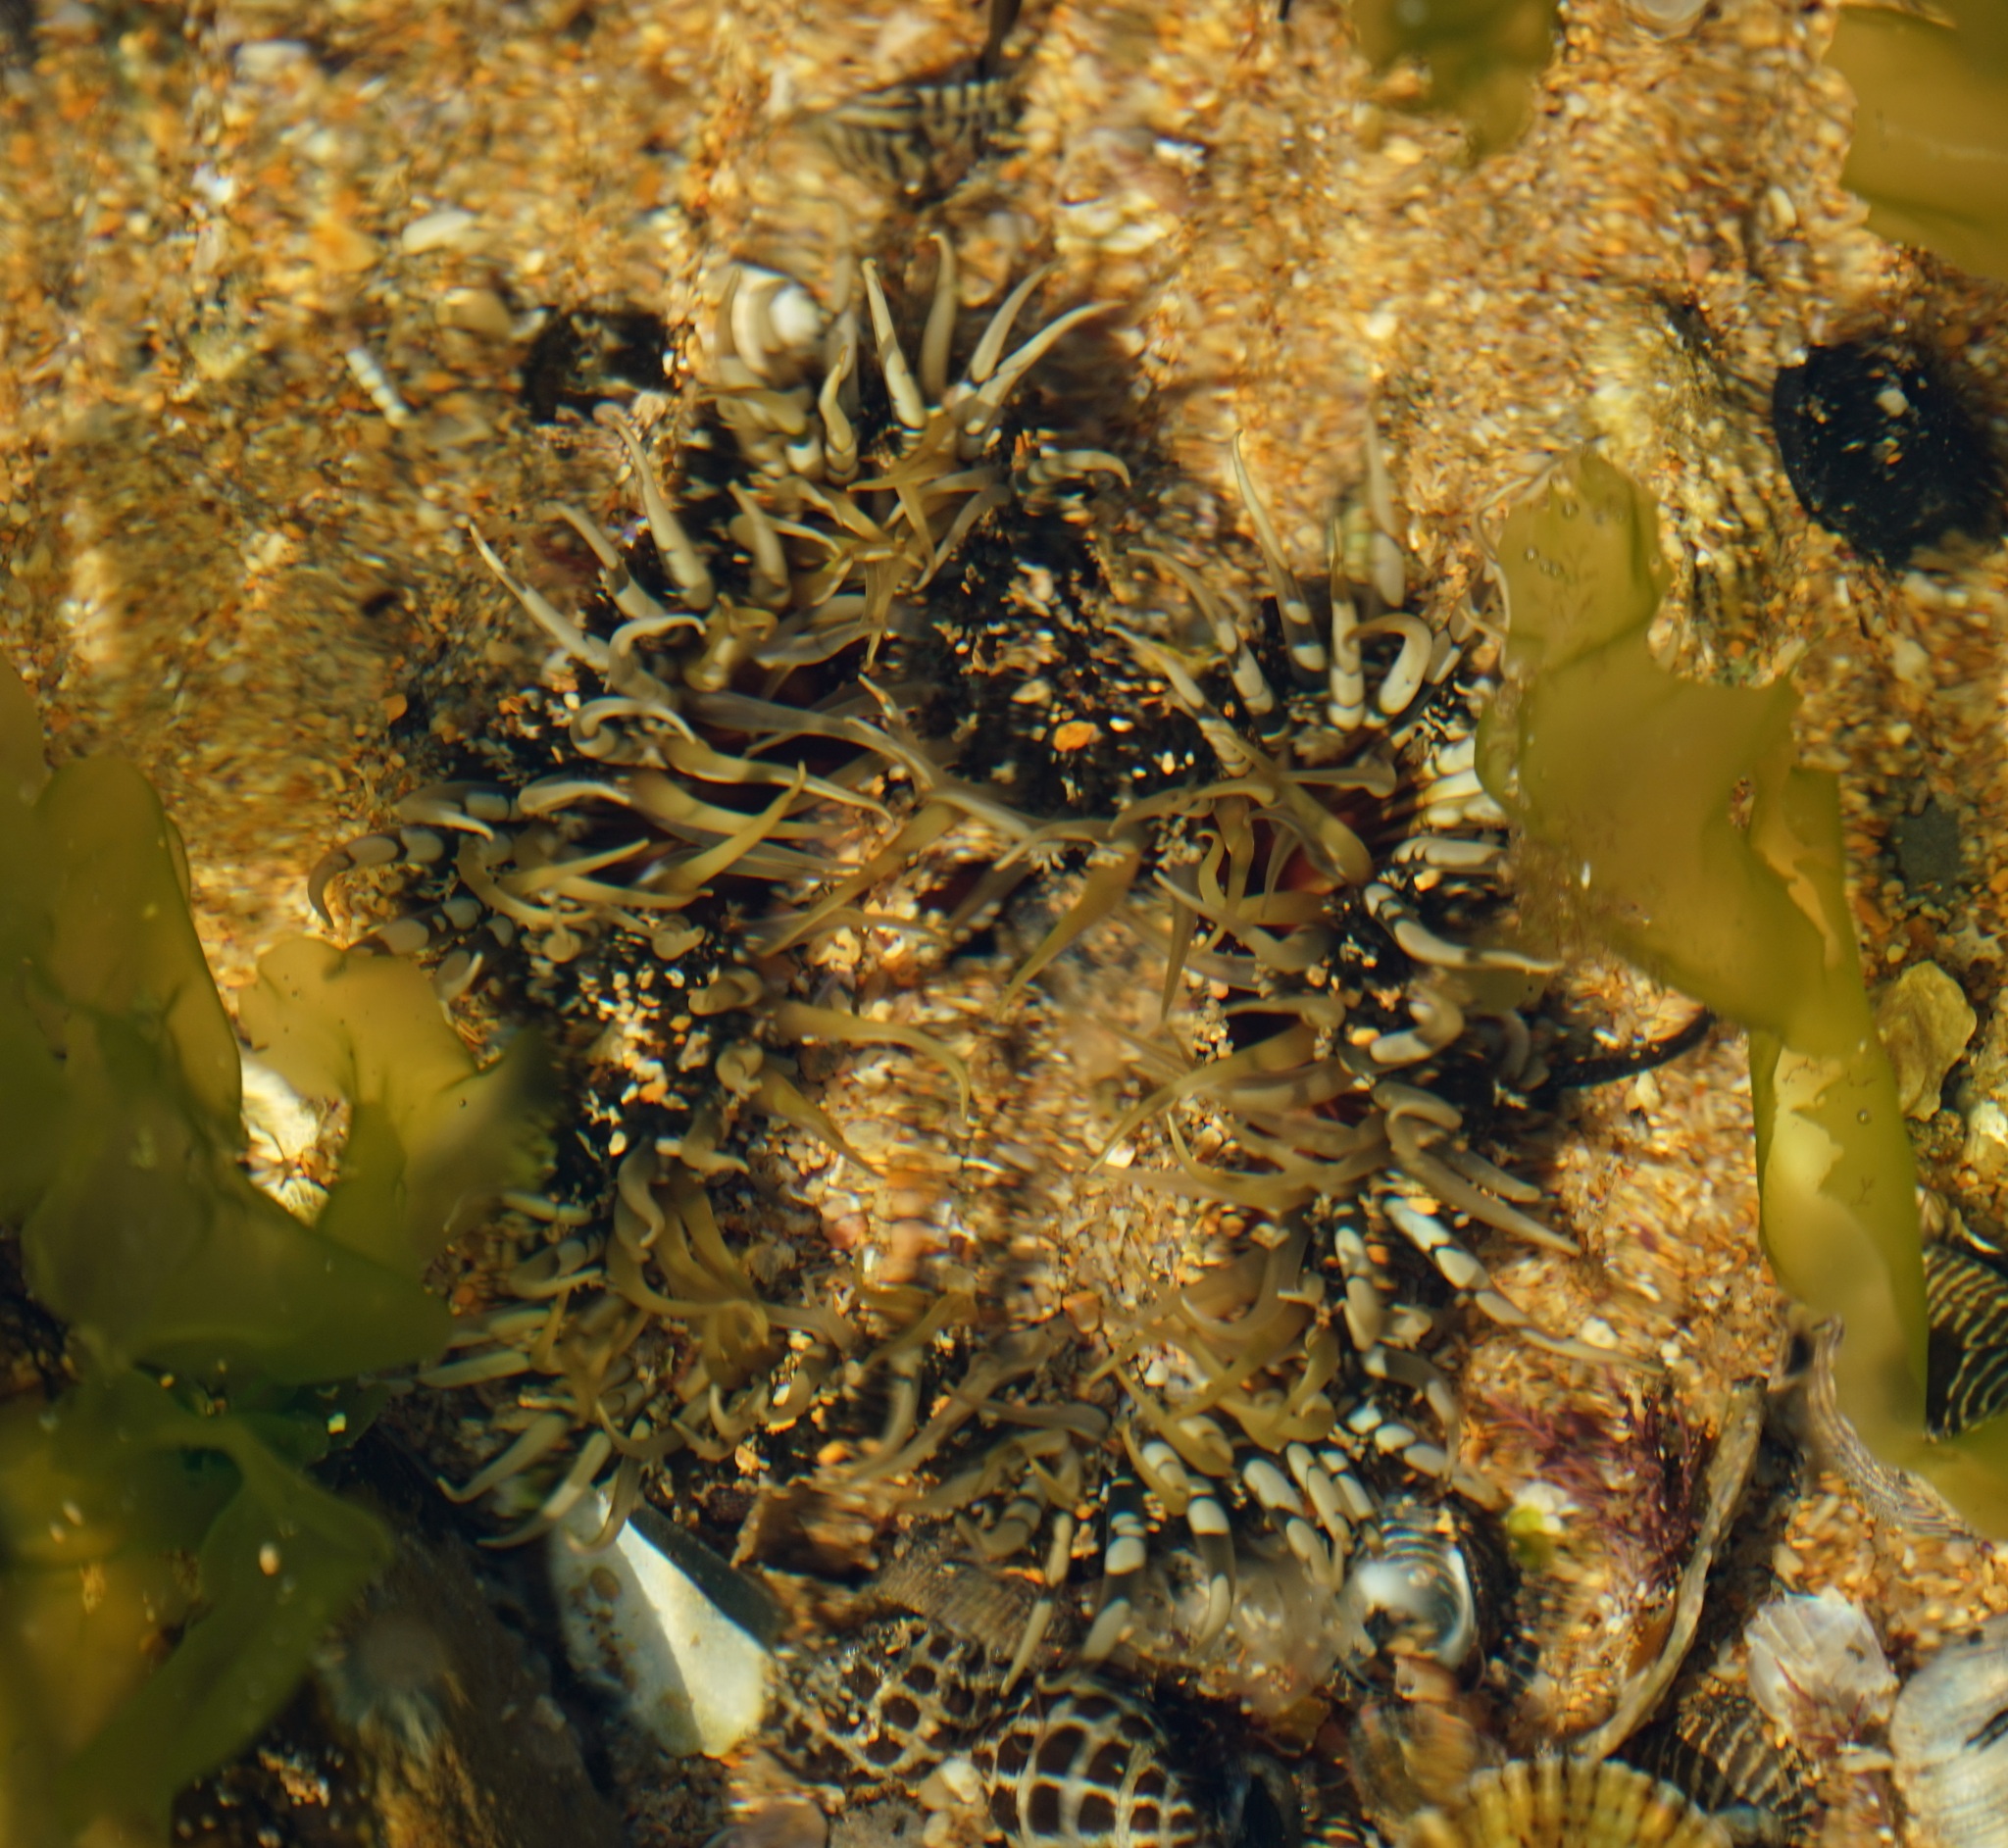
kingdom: Animalia
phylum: Cnidaria
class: Anthozoa
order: Actiniaria
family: Actiniidae
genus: Oulactis
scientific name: Oulactis muscosa
